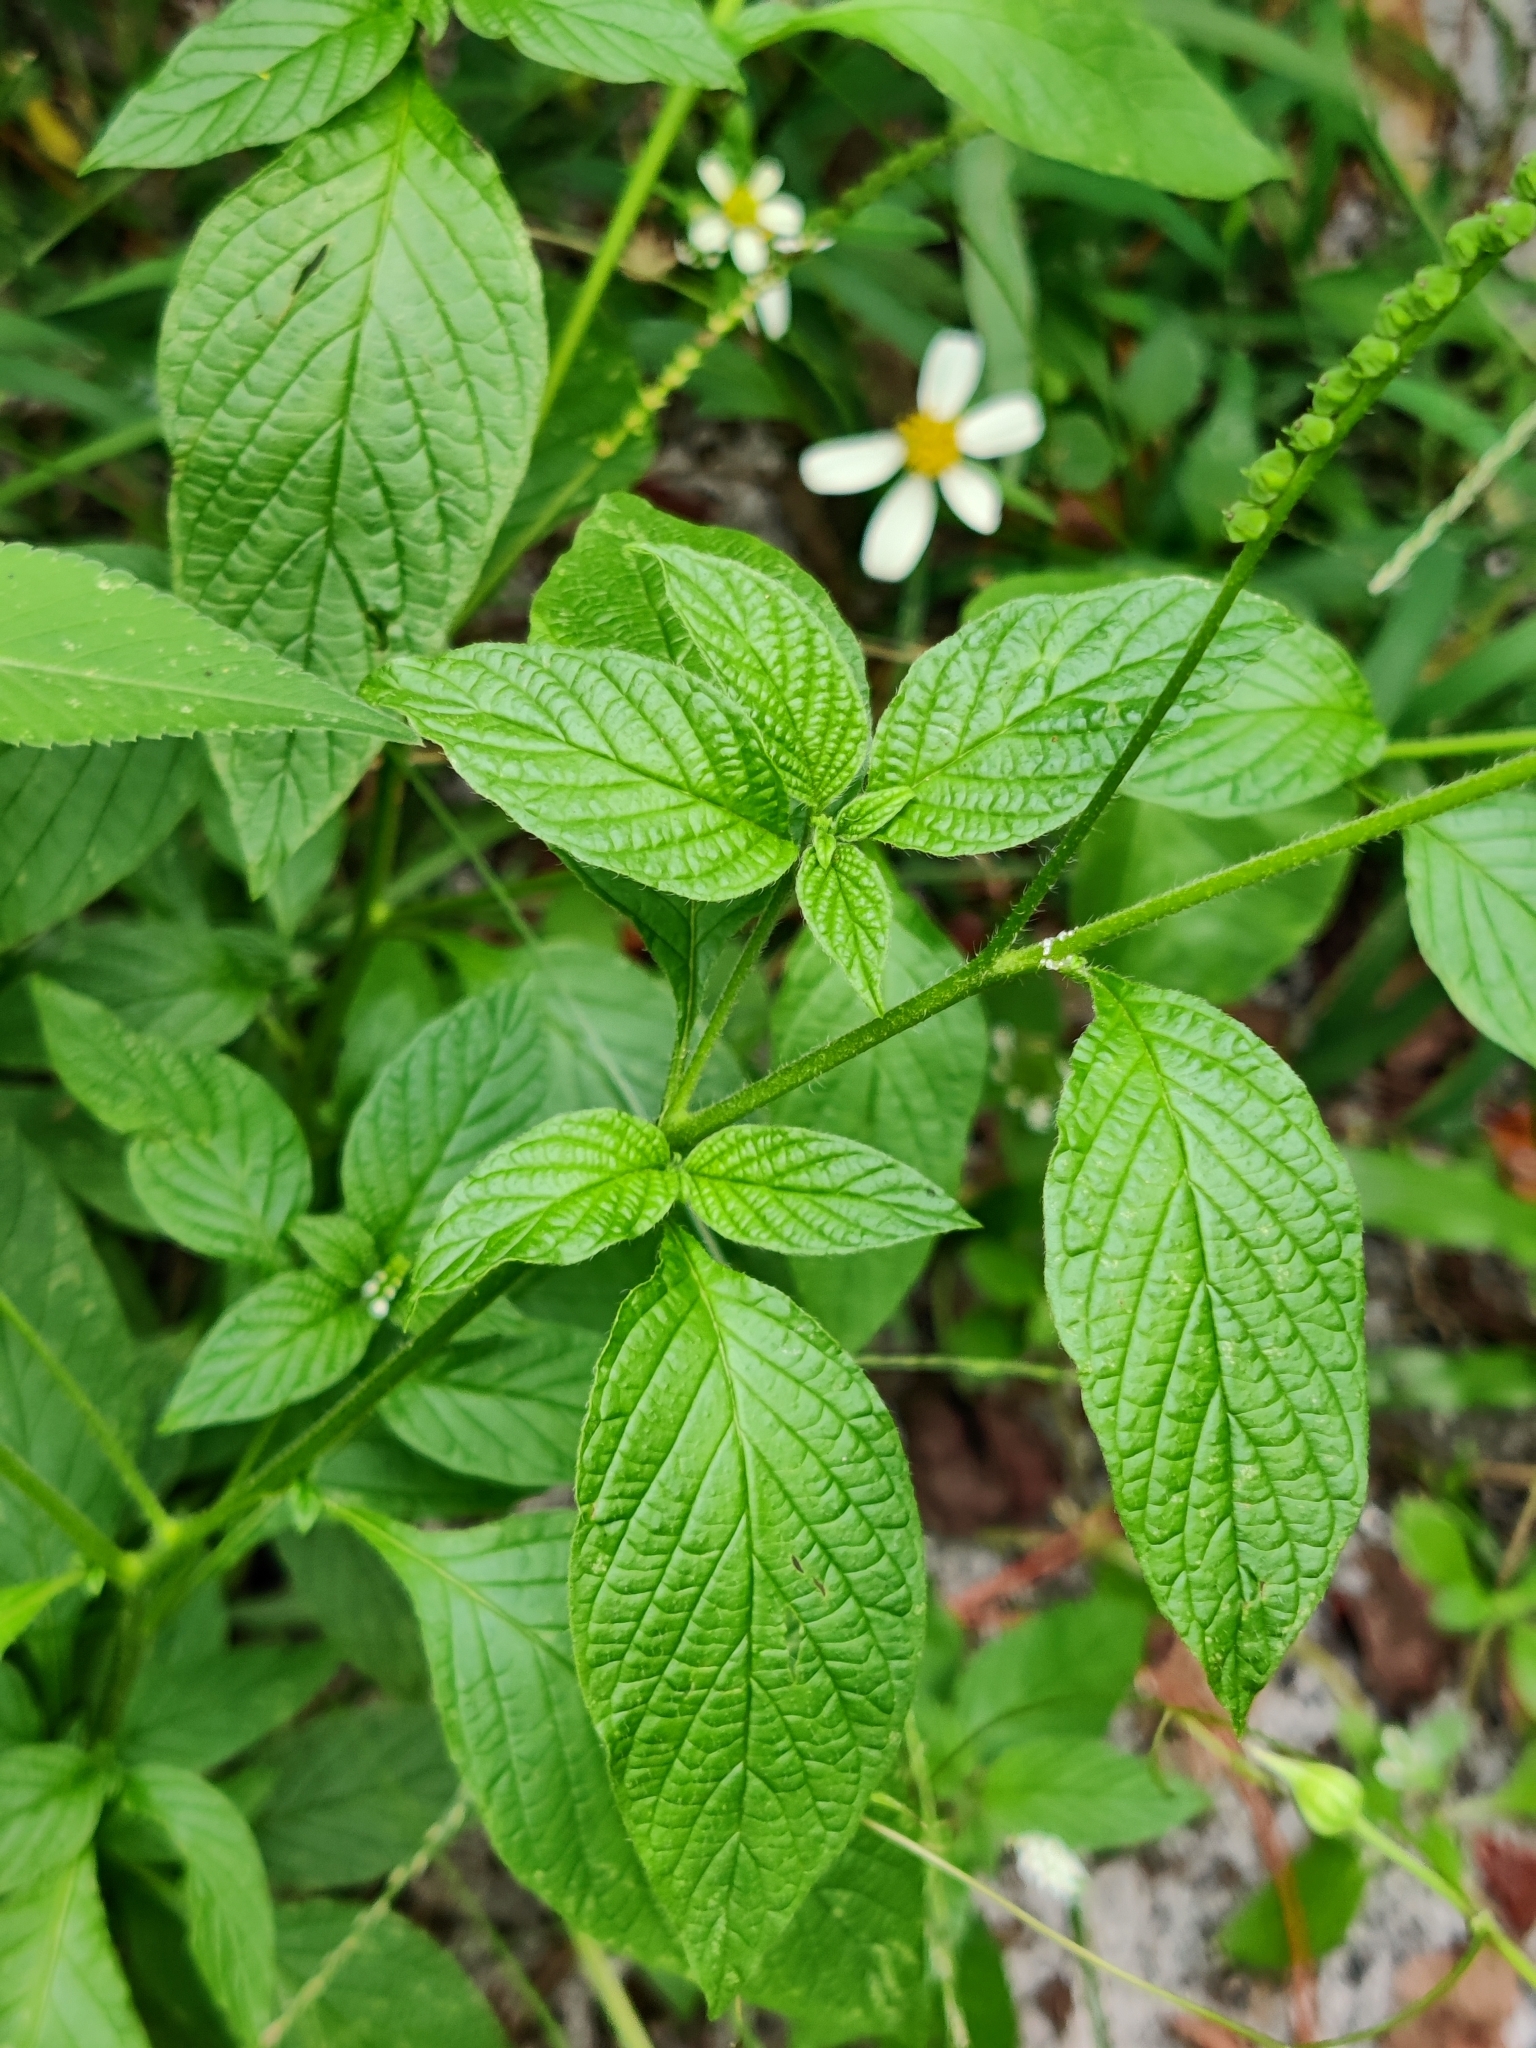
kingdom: Plantae
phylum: Tracheophyta
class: Magnoliopsida
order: Boraginales
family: Heliotropiaceae
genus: Heliotropium
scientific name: Heliotropium angiospermum
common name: Eye bright
